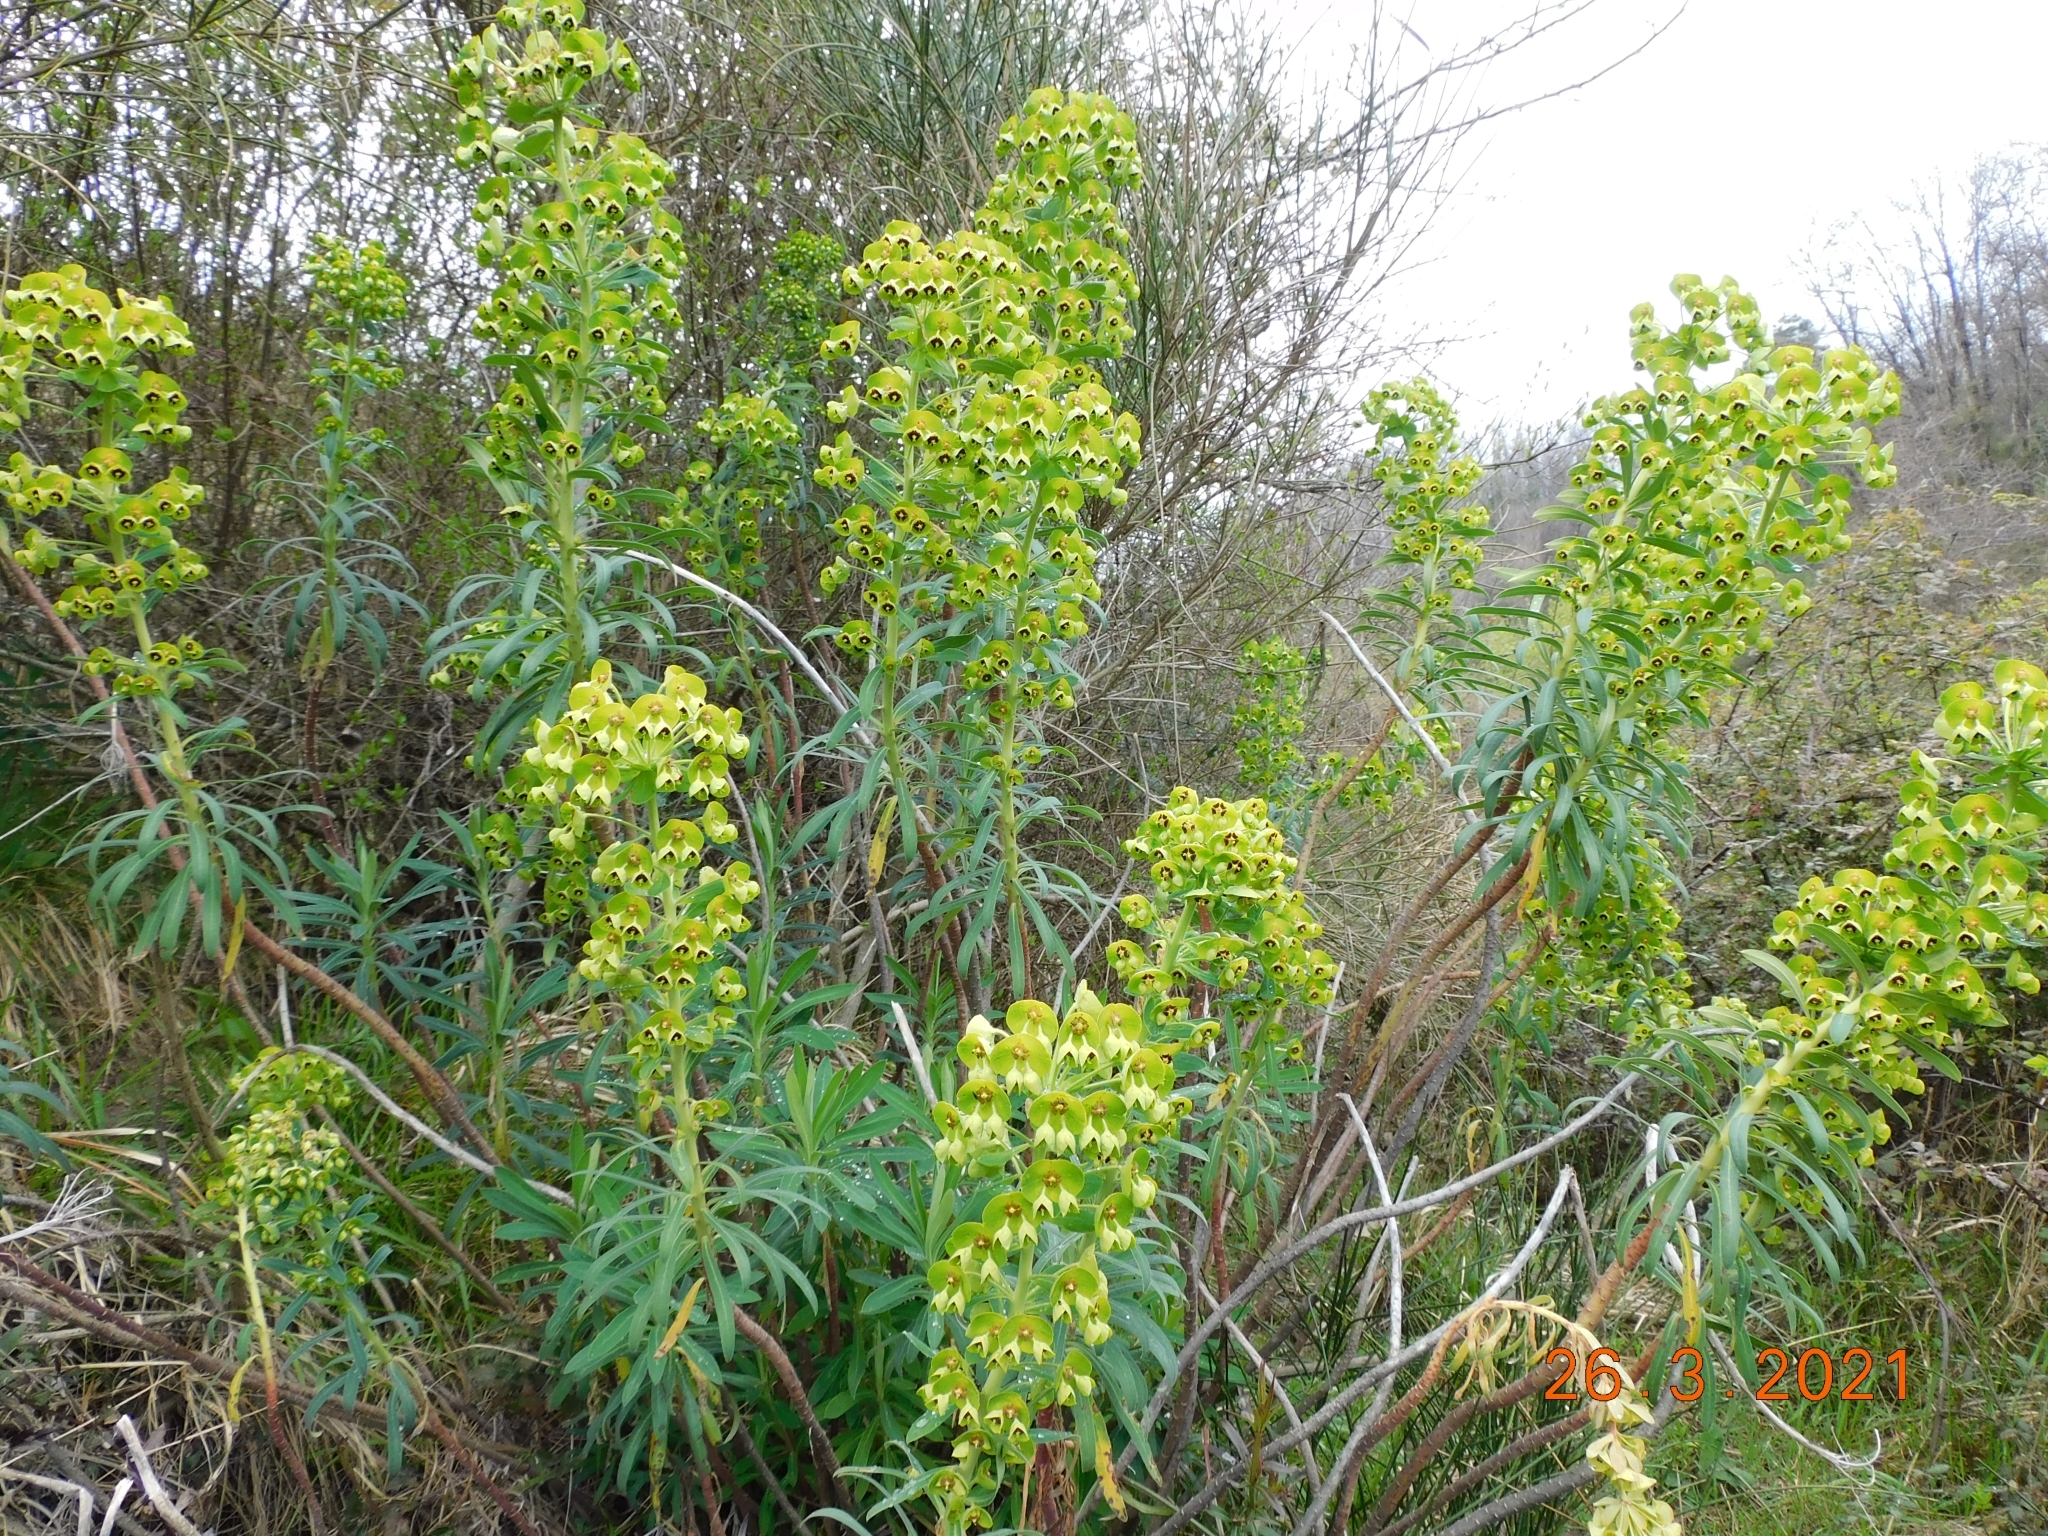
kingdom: Plantae
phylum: Tracheophyta
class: Magnoliopsida
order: Malpighiales
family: Euphorbiaceae
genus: Euphorbia
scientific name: Euphorbia characias
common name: Mediterranean spurge
